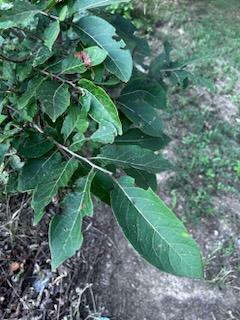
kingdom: Plantae
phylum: Tracheophyta
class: Magnoliopsida
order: Ericales
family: Ebenaceae
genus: Diospyros
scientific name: Diospyros virginiana
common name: Persimmon
